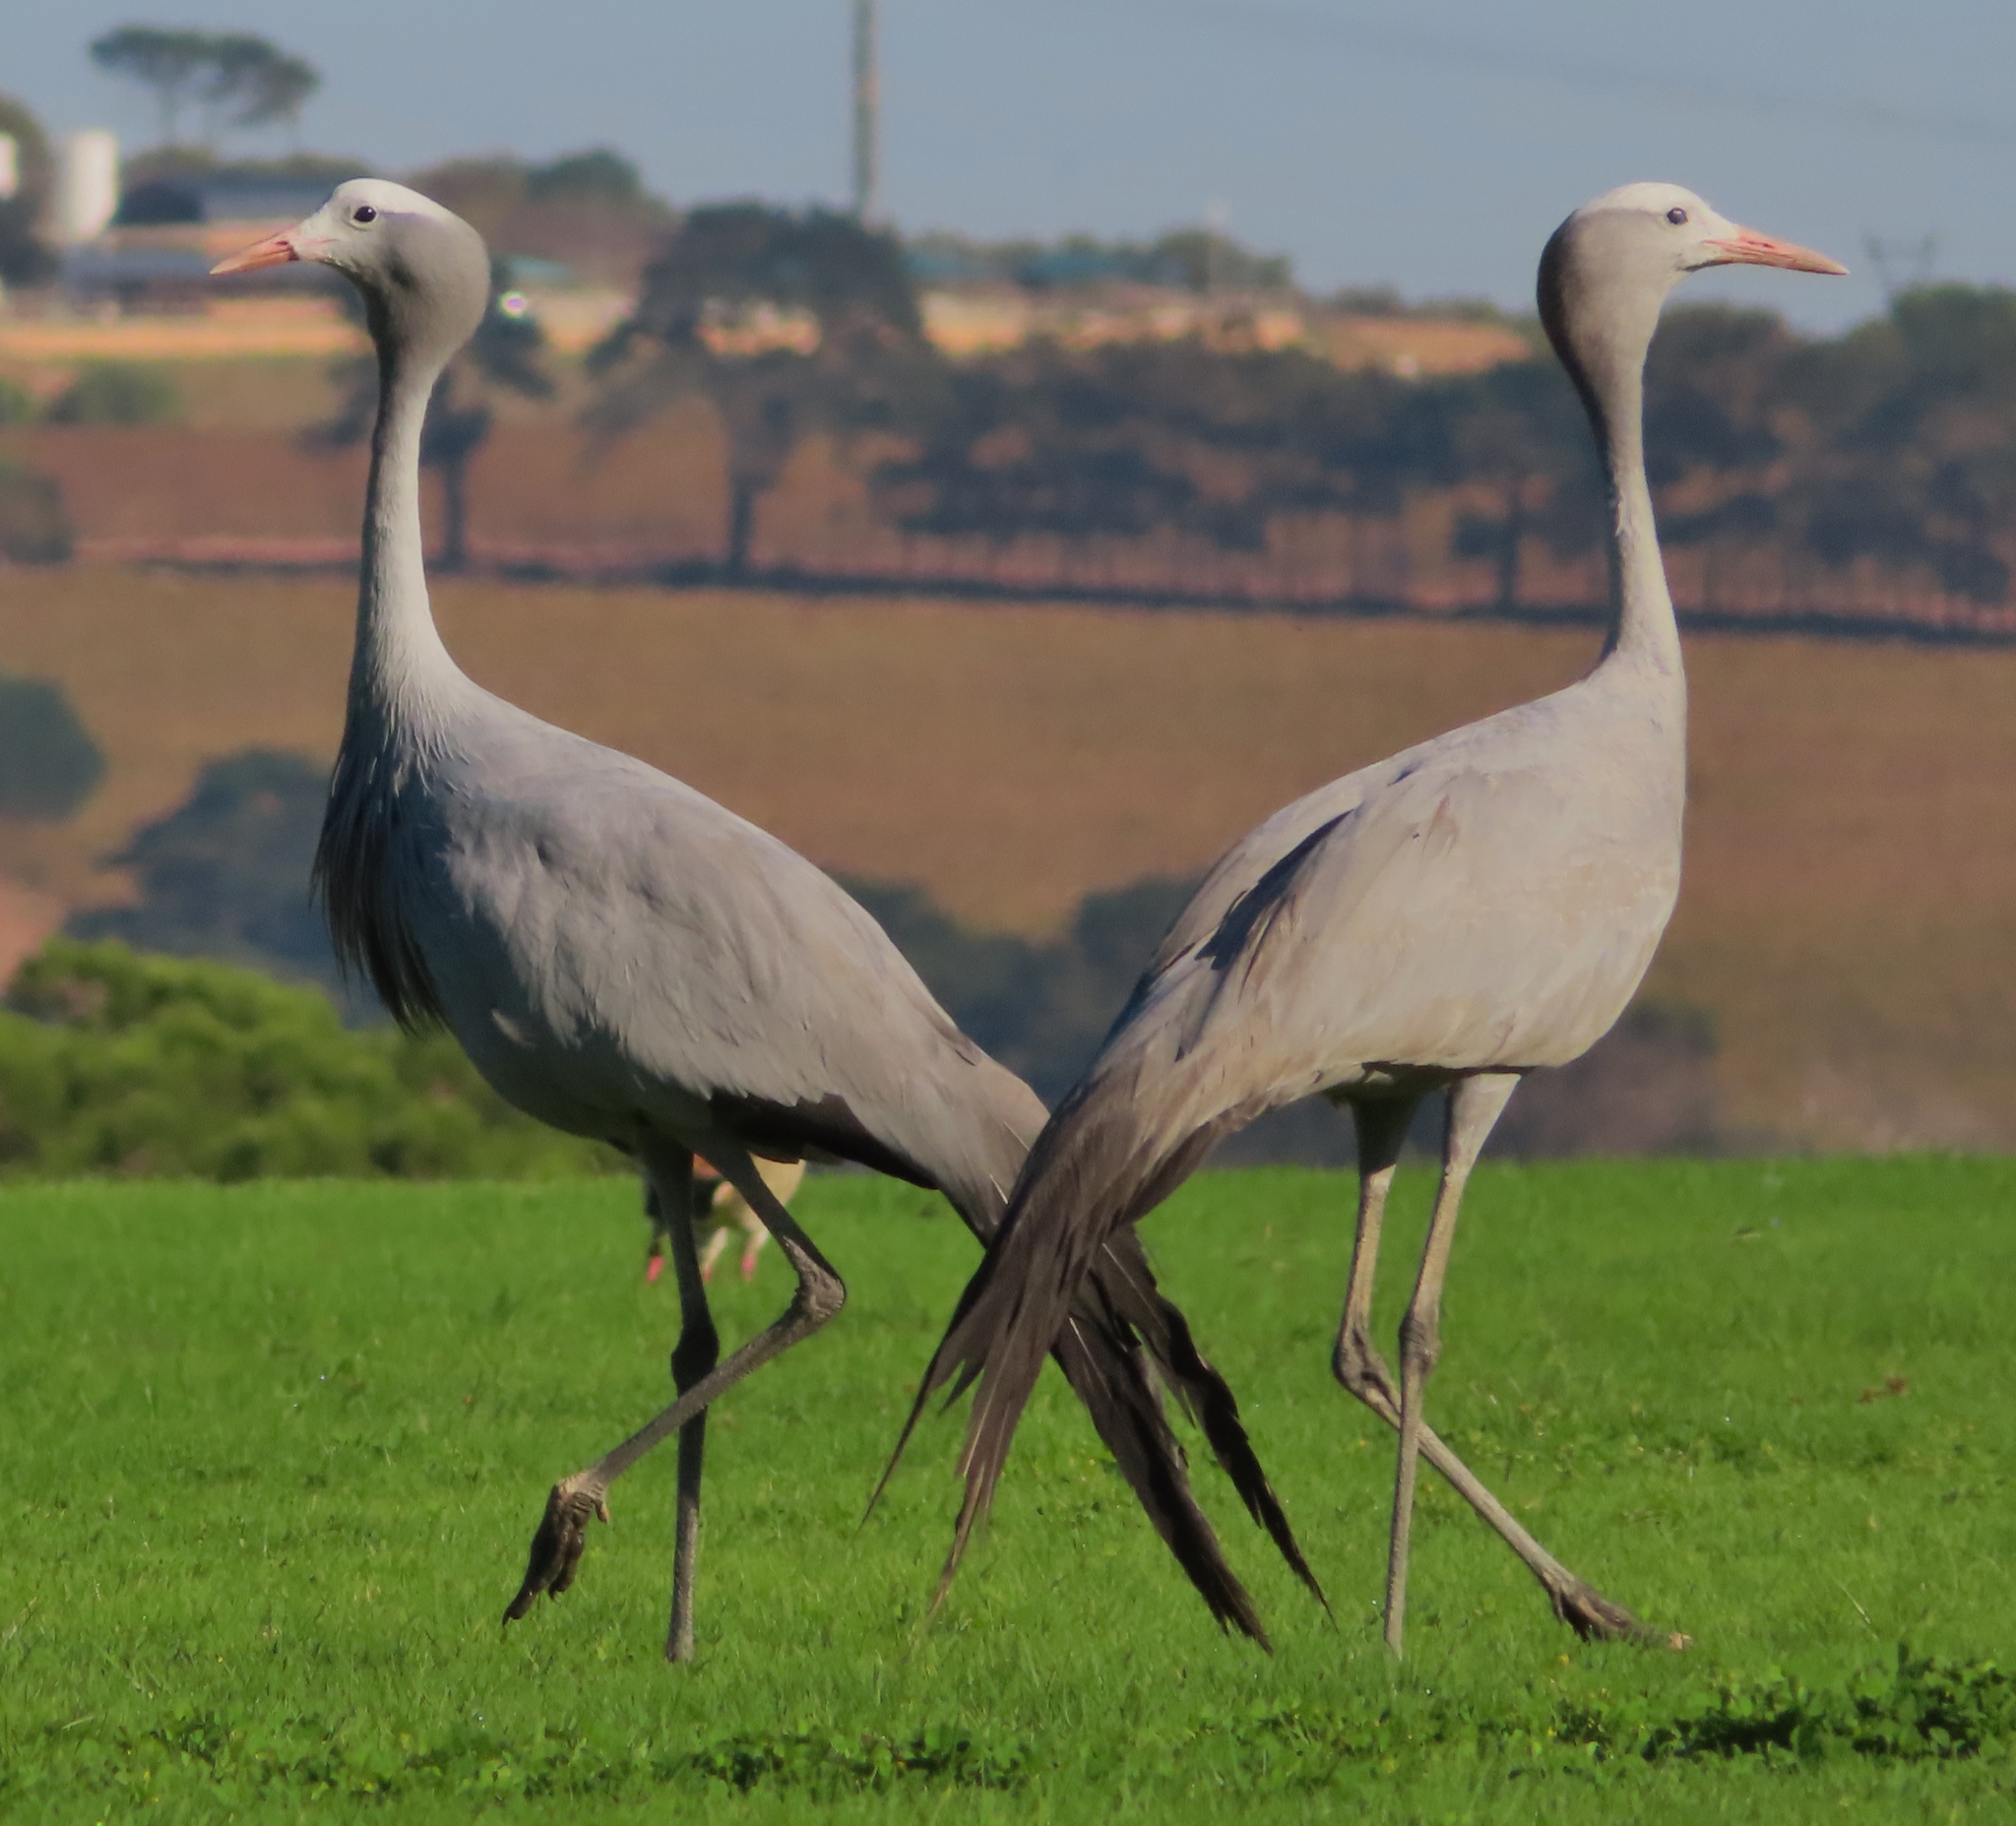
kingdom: Animalia
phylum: Chordata
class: Aves
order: Gruiformes
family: Gruidae
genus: Anthropoides
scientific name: Anthropoides paradiseus
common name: Blue crane
